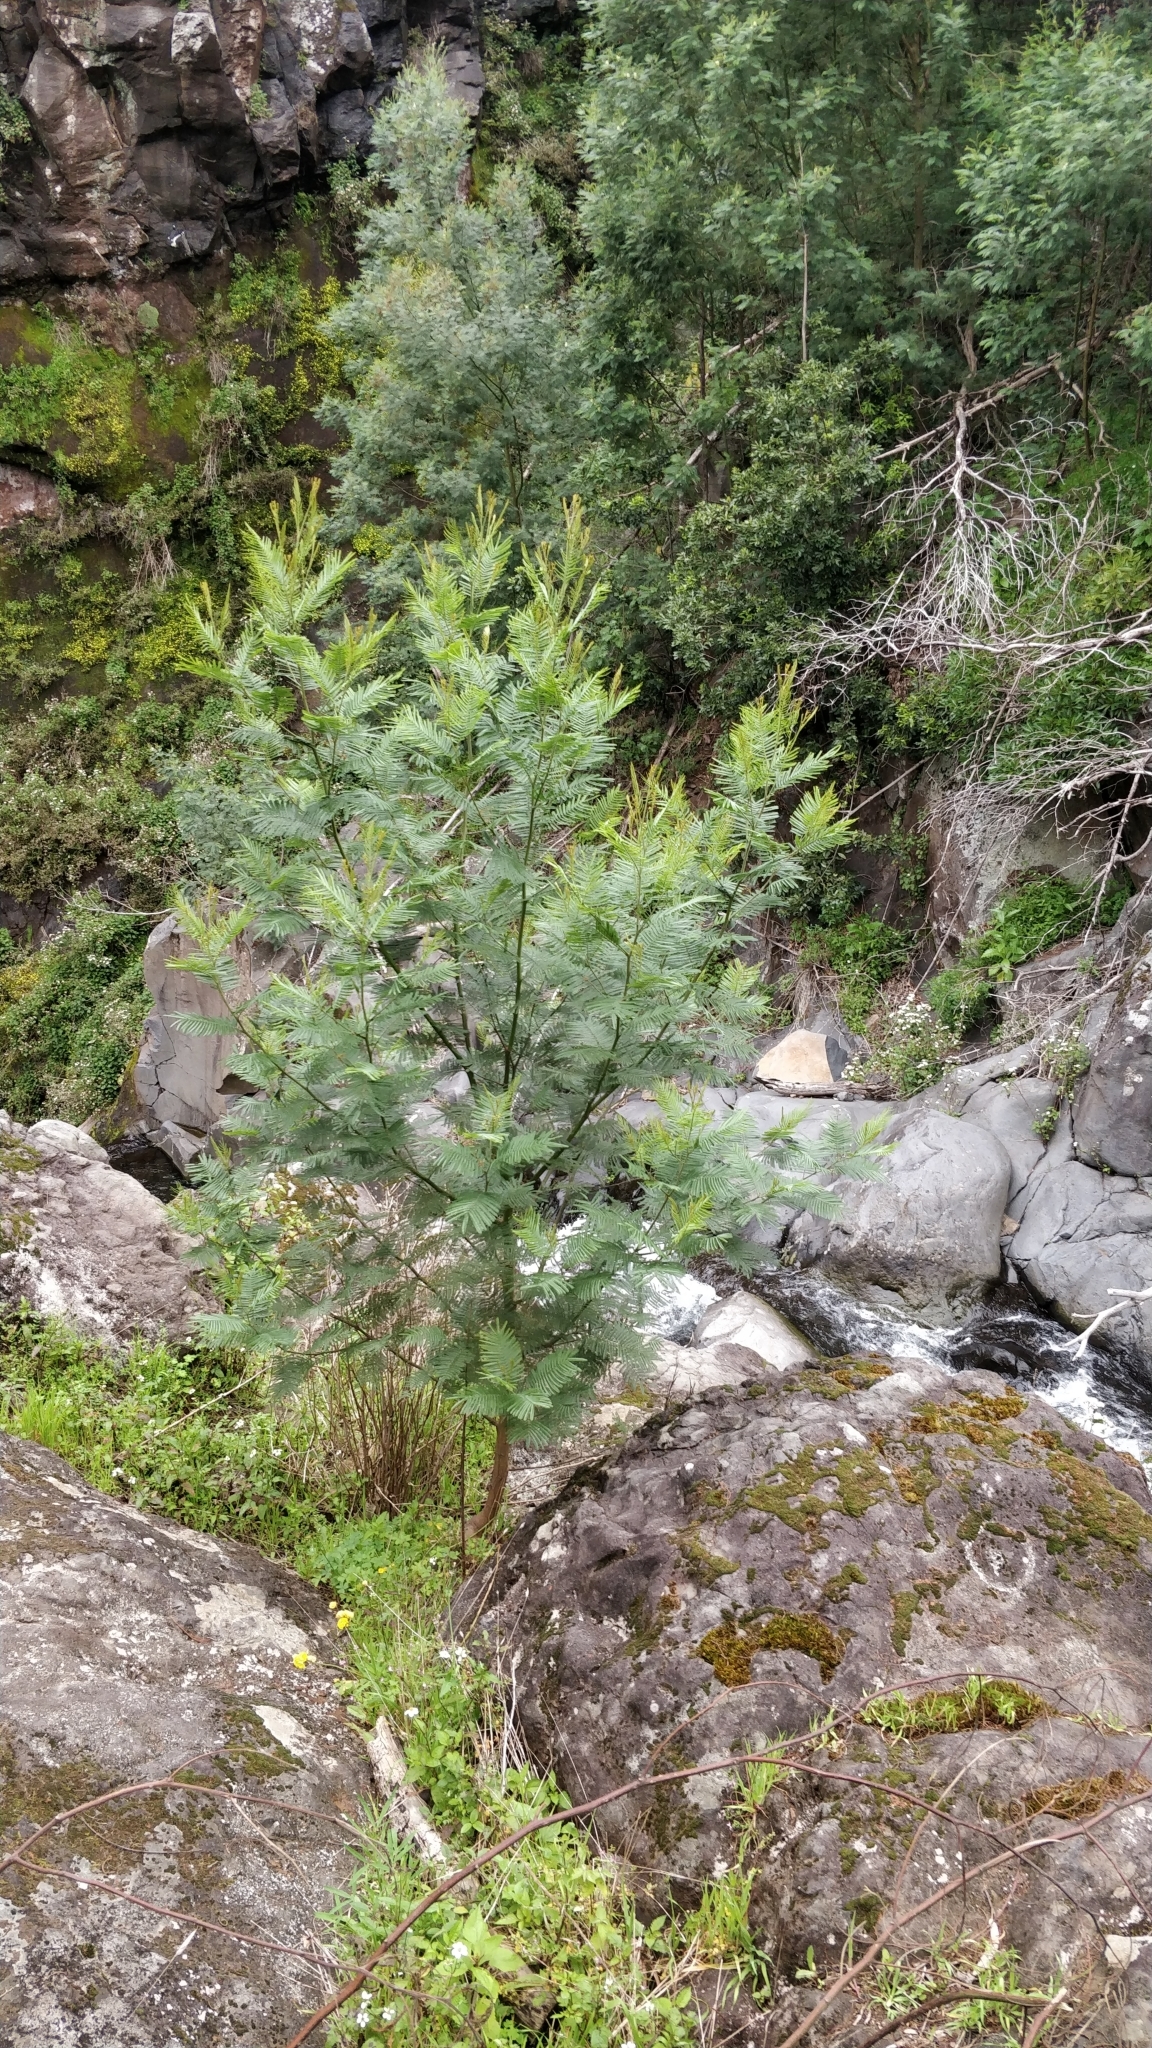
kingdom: Plantae
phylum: Tracheophyta
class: Magnoliopsida
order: Fabales
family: Fabaceae
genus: Acacia
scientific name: Acacia mearnsii
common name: Black wattle
